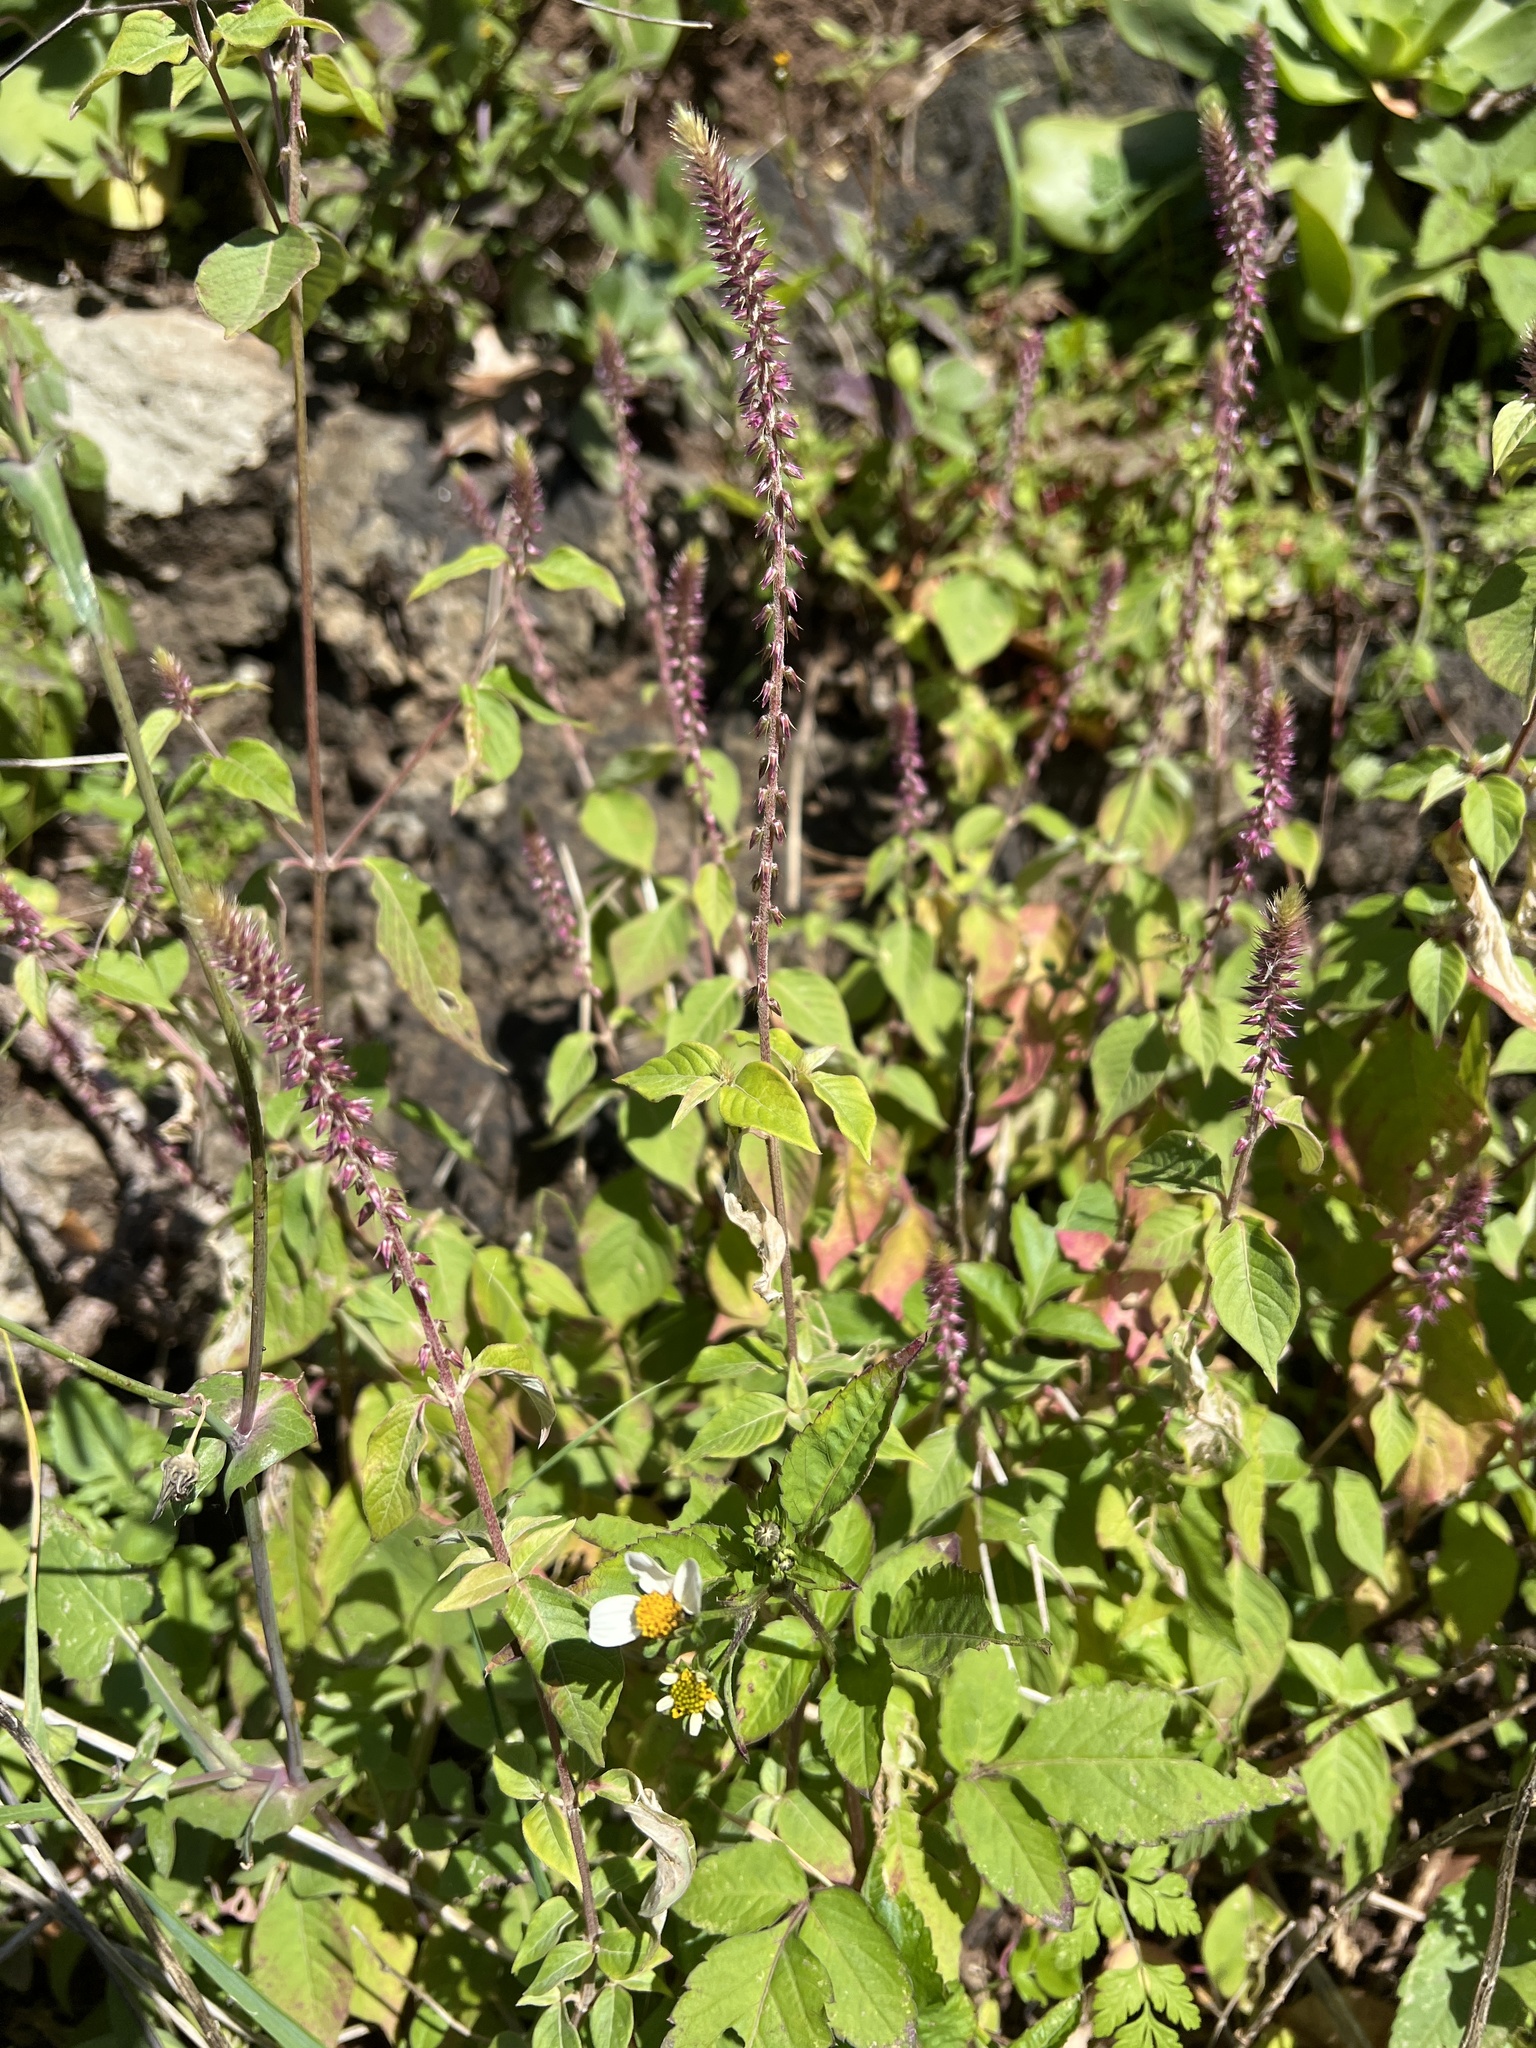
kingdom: Plantae
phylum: Tracheophyta
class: Magnoliopsida
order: Caryophyllales
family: Amaranthaceae
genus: Achyranthes
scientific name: Achyranthes aspera
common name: Devil's horsewhip
